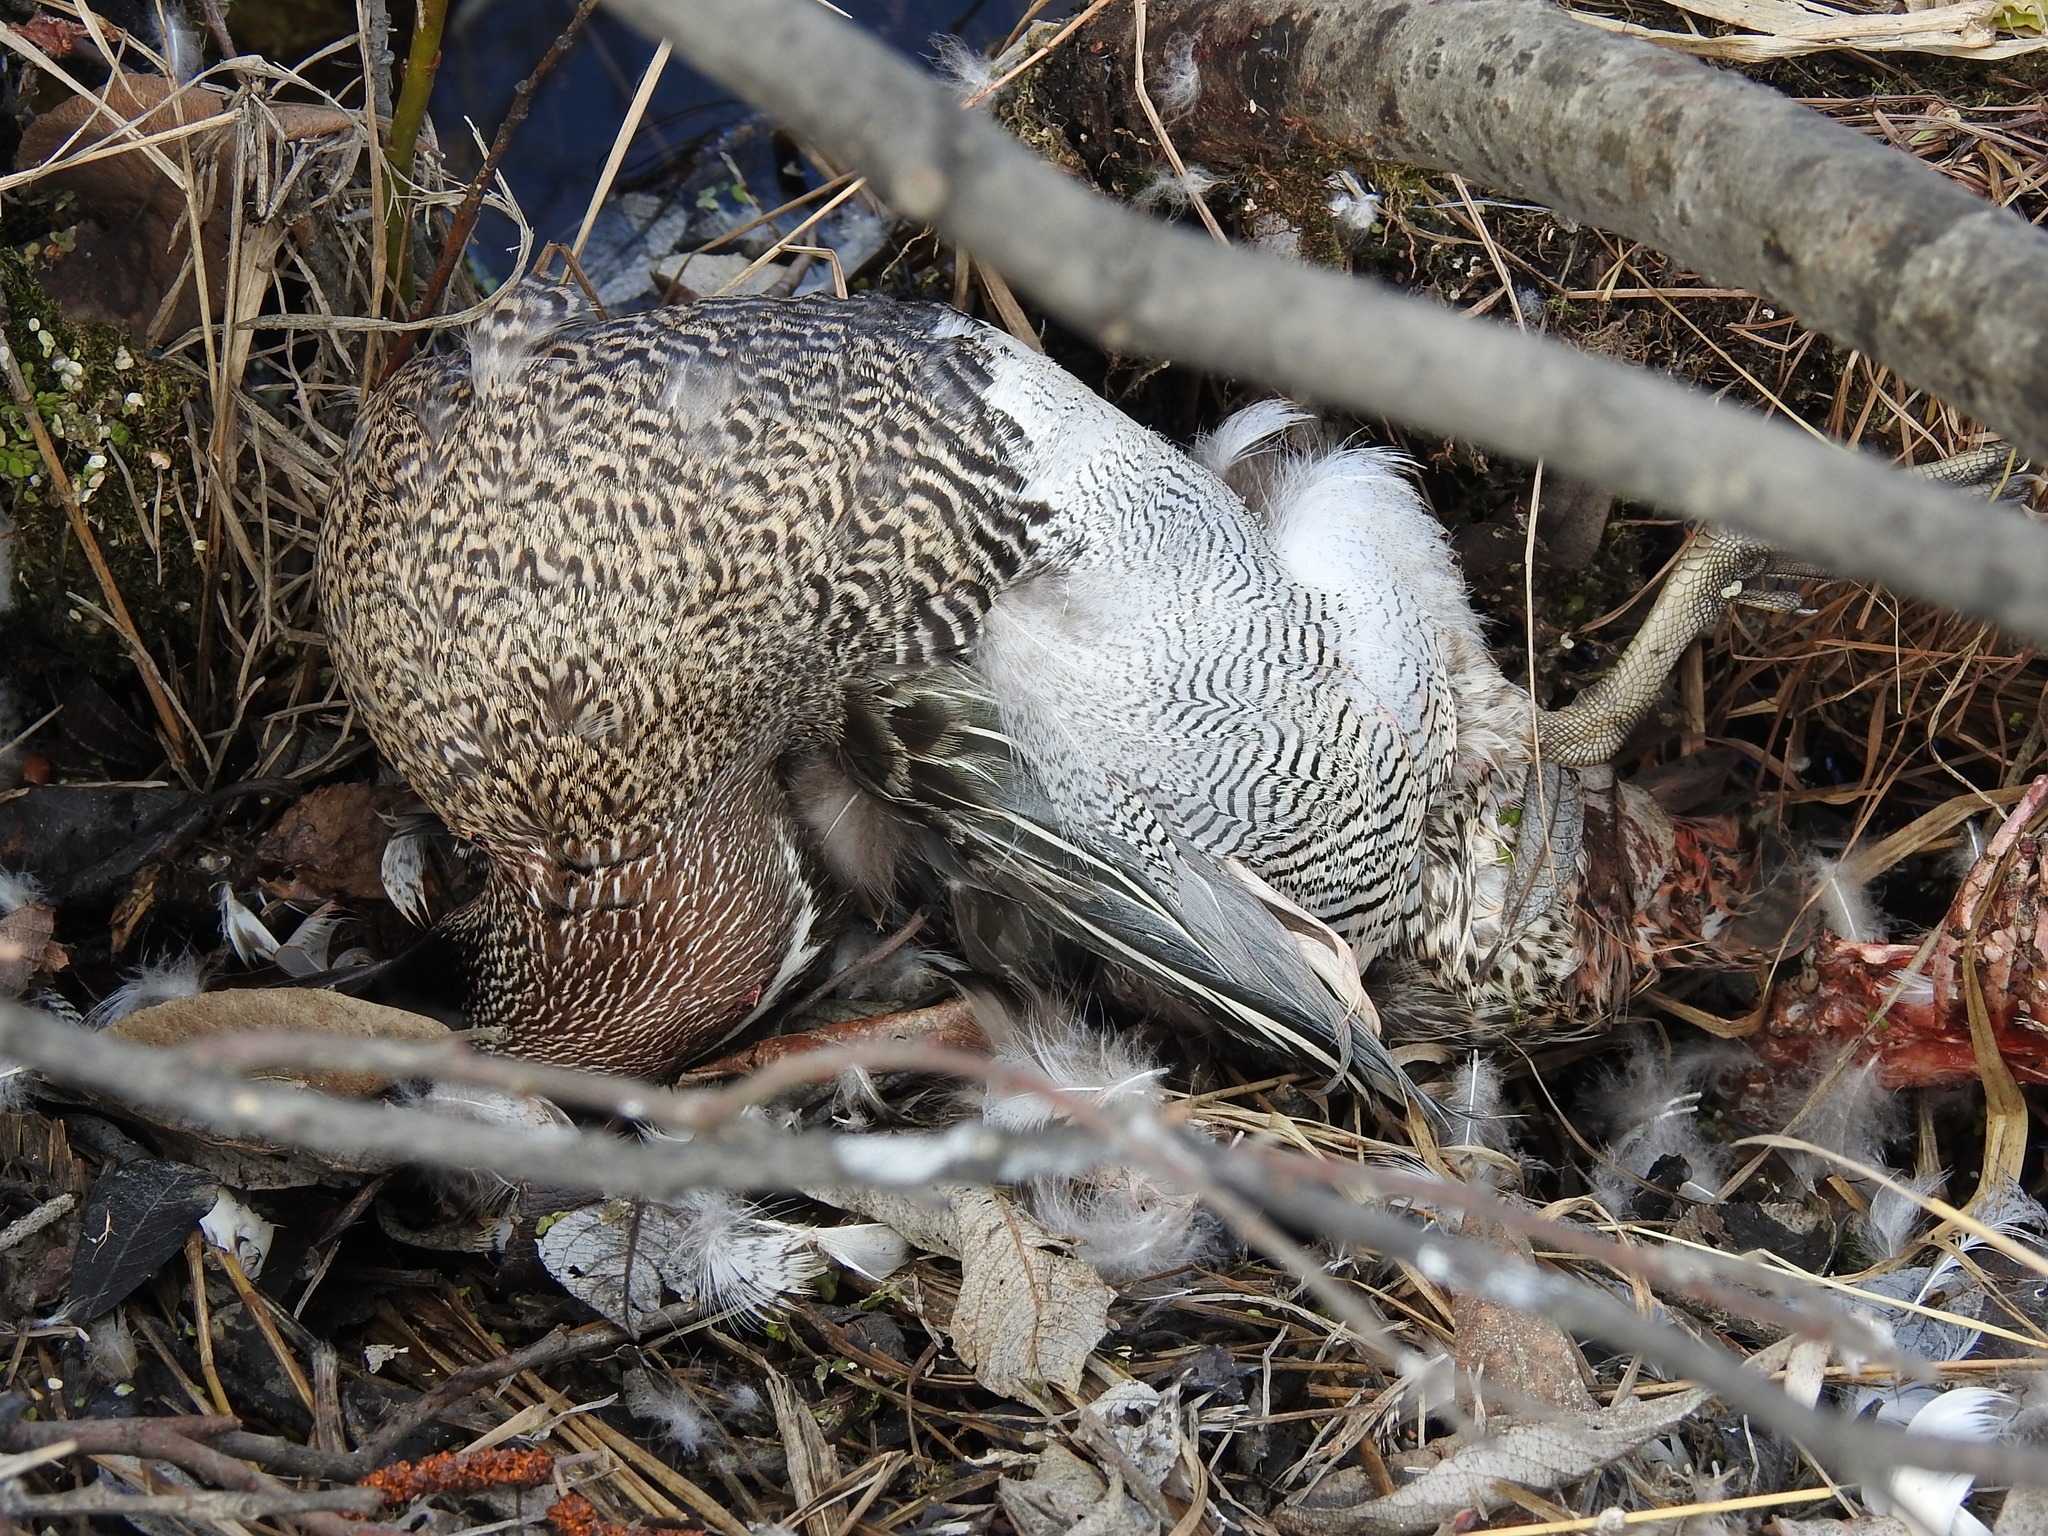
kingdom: Animalia
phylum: Chordata
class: Aves
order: Anseriformes
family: Anatidae
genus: Spatula
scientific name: Spatula querquedula
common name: Garganey
